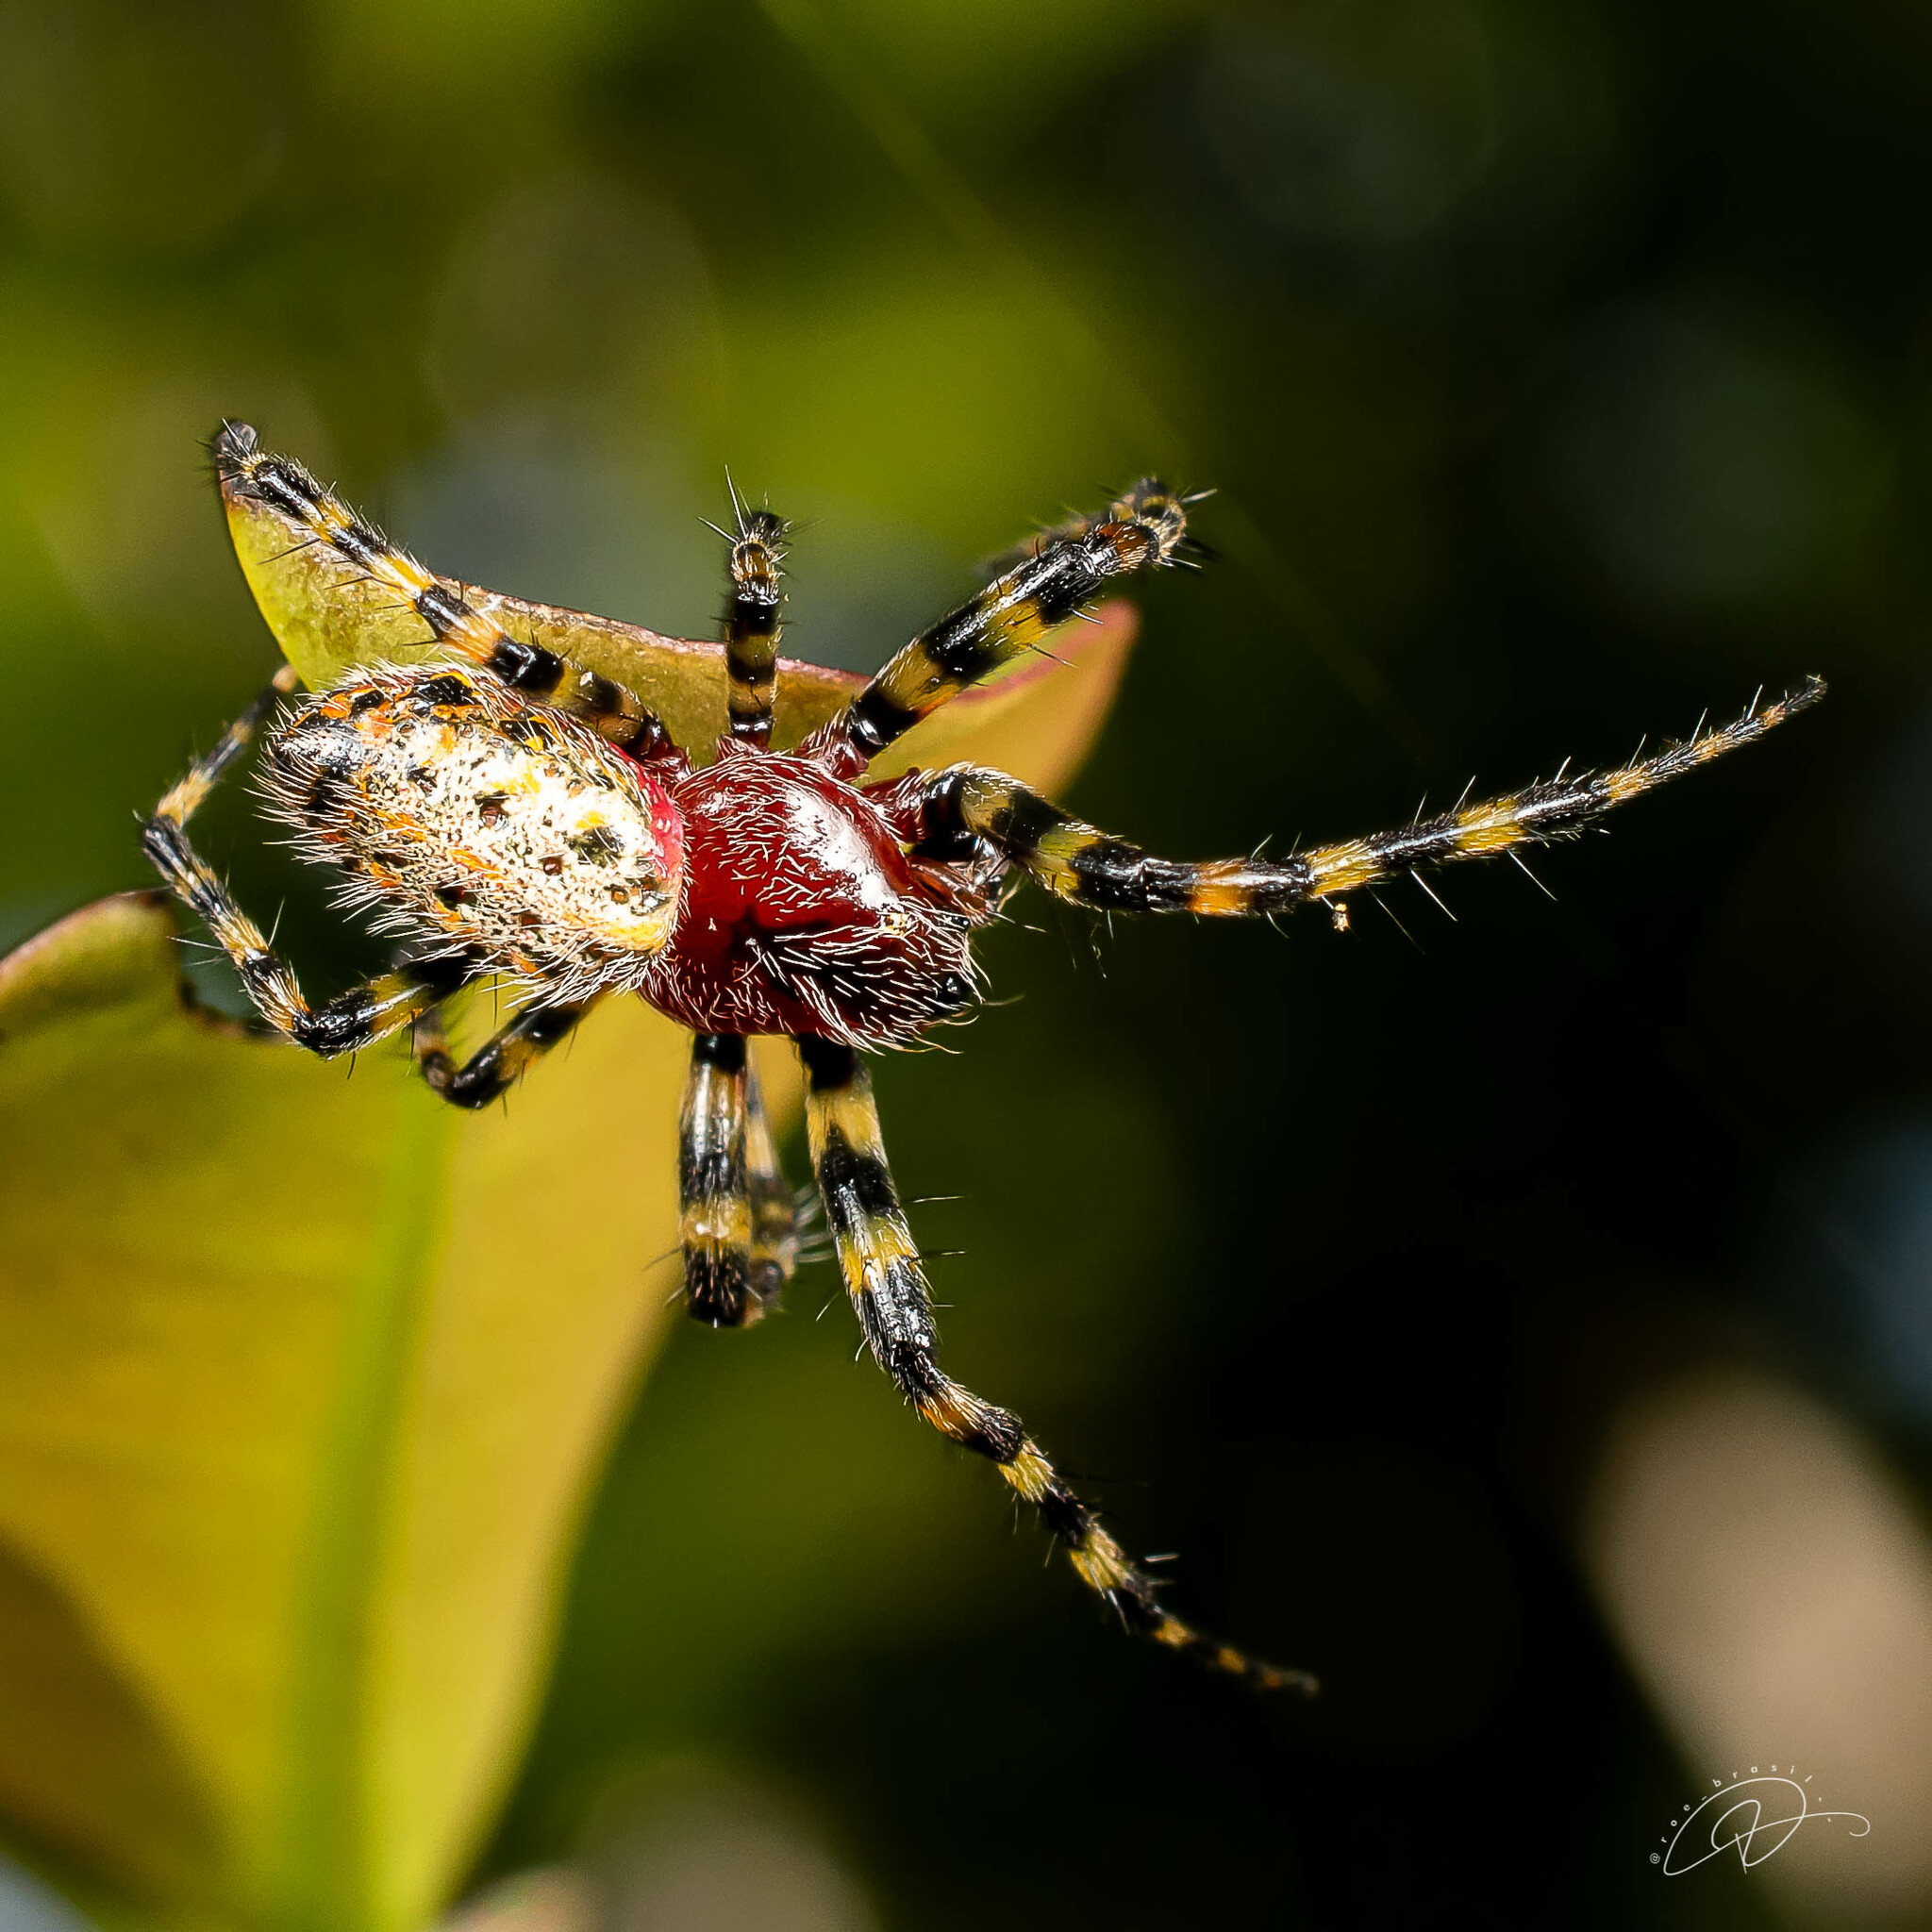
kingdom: Animalia
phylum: Arthropoda
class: Arachnida
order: Araneae
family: Araneidae
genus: Alpaida
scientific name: Alpaida alticeps
